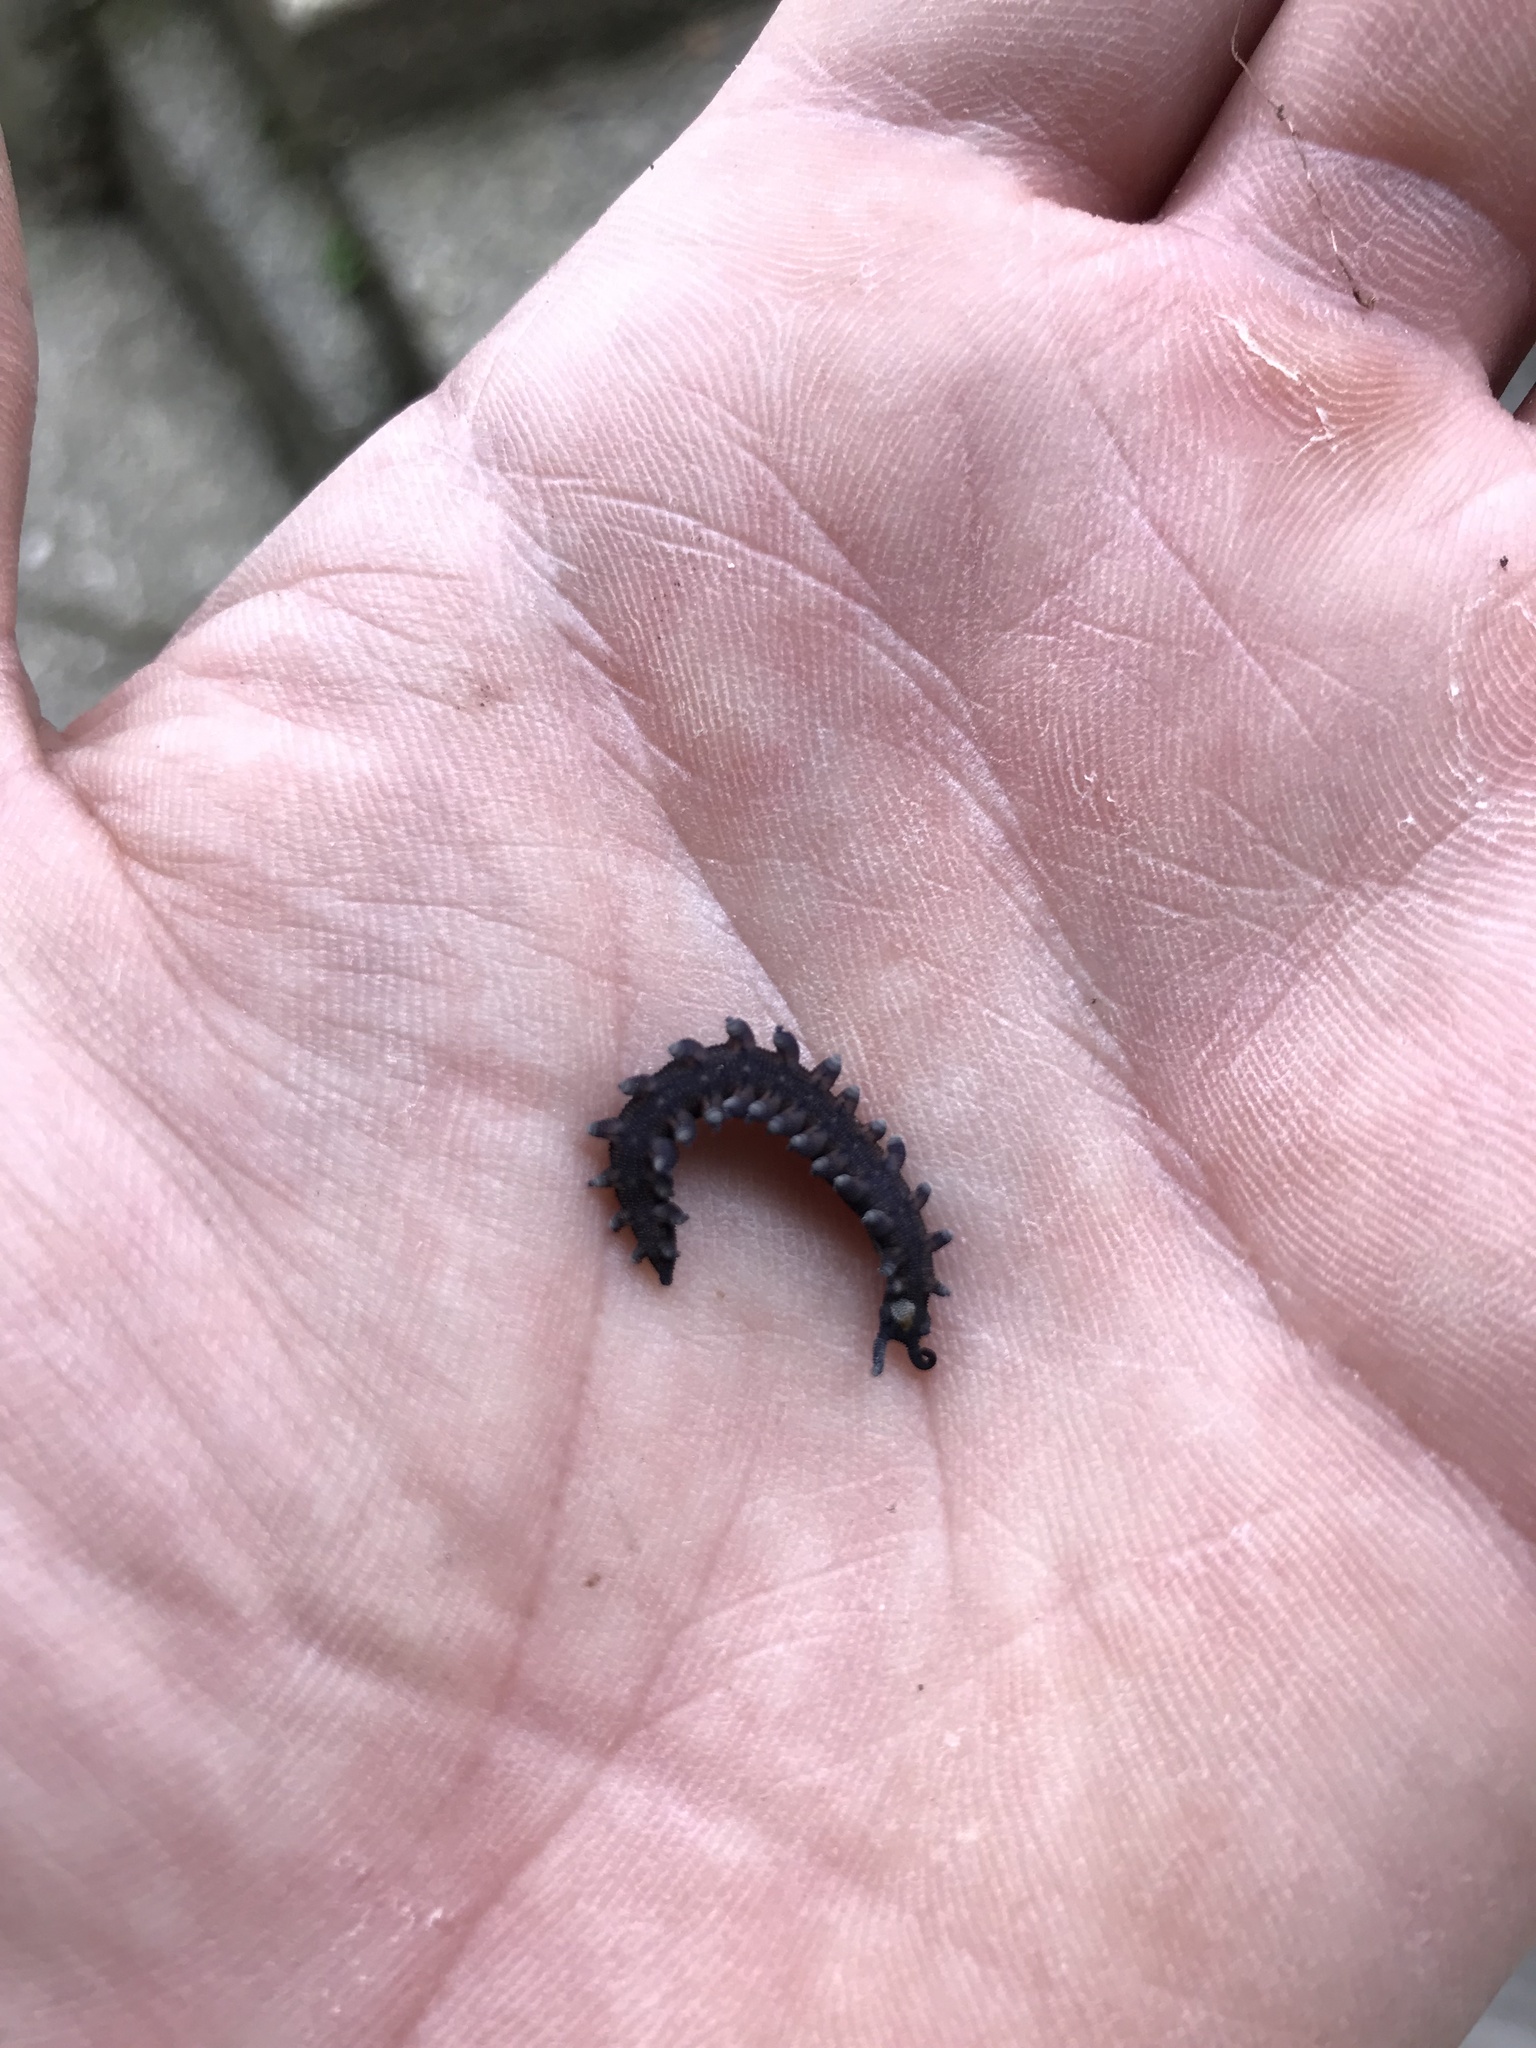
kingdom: Animalia
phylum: Onychophora
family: Peripatopsidae
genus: Peripatoides
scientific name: Peripatoides novaezealandiae
